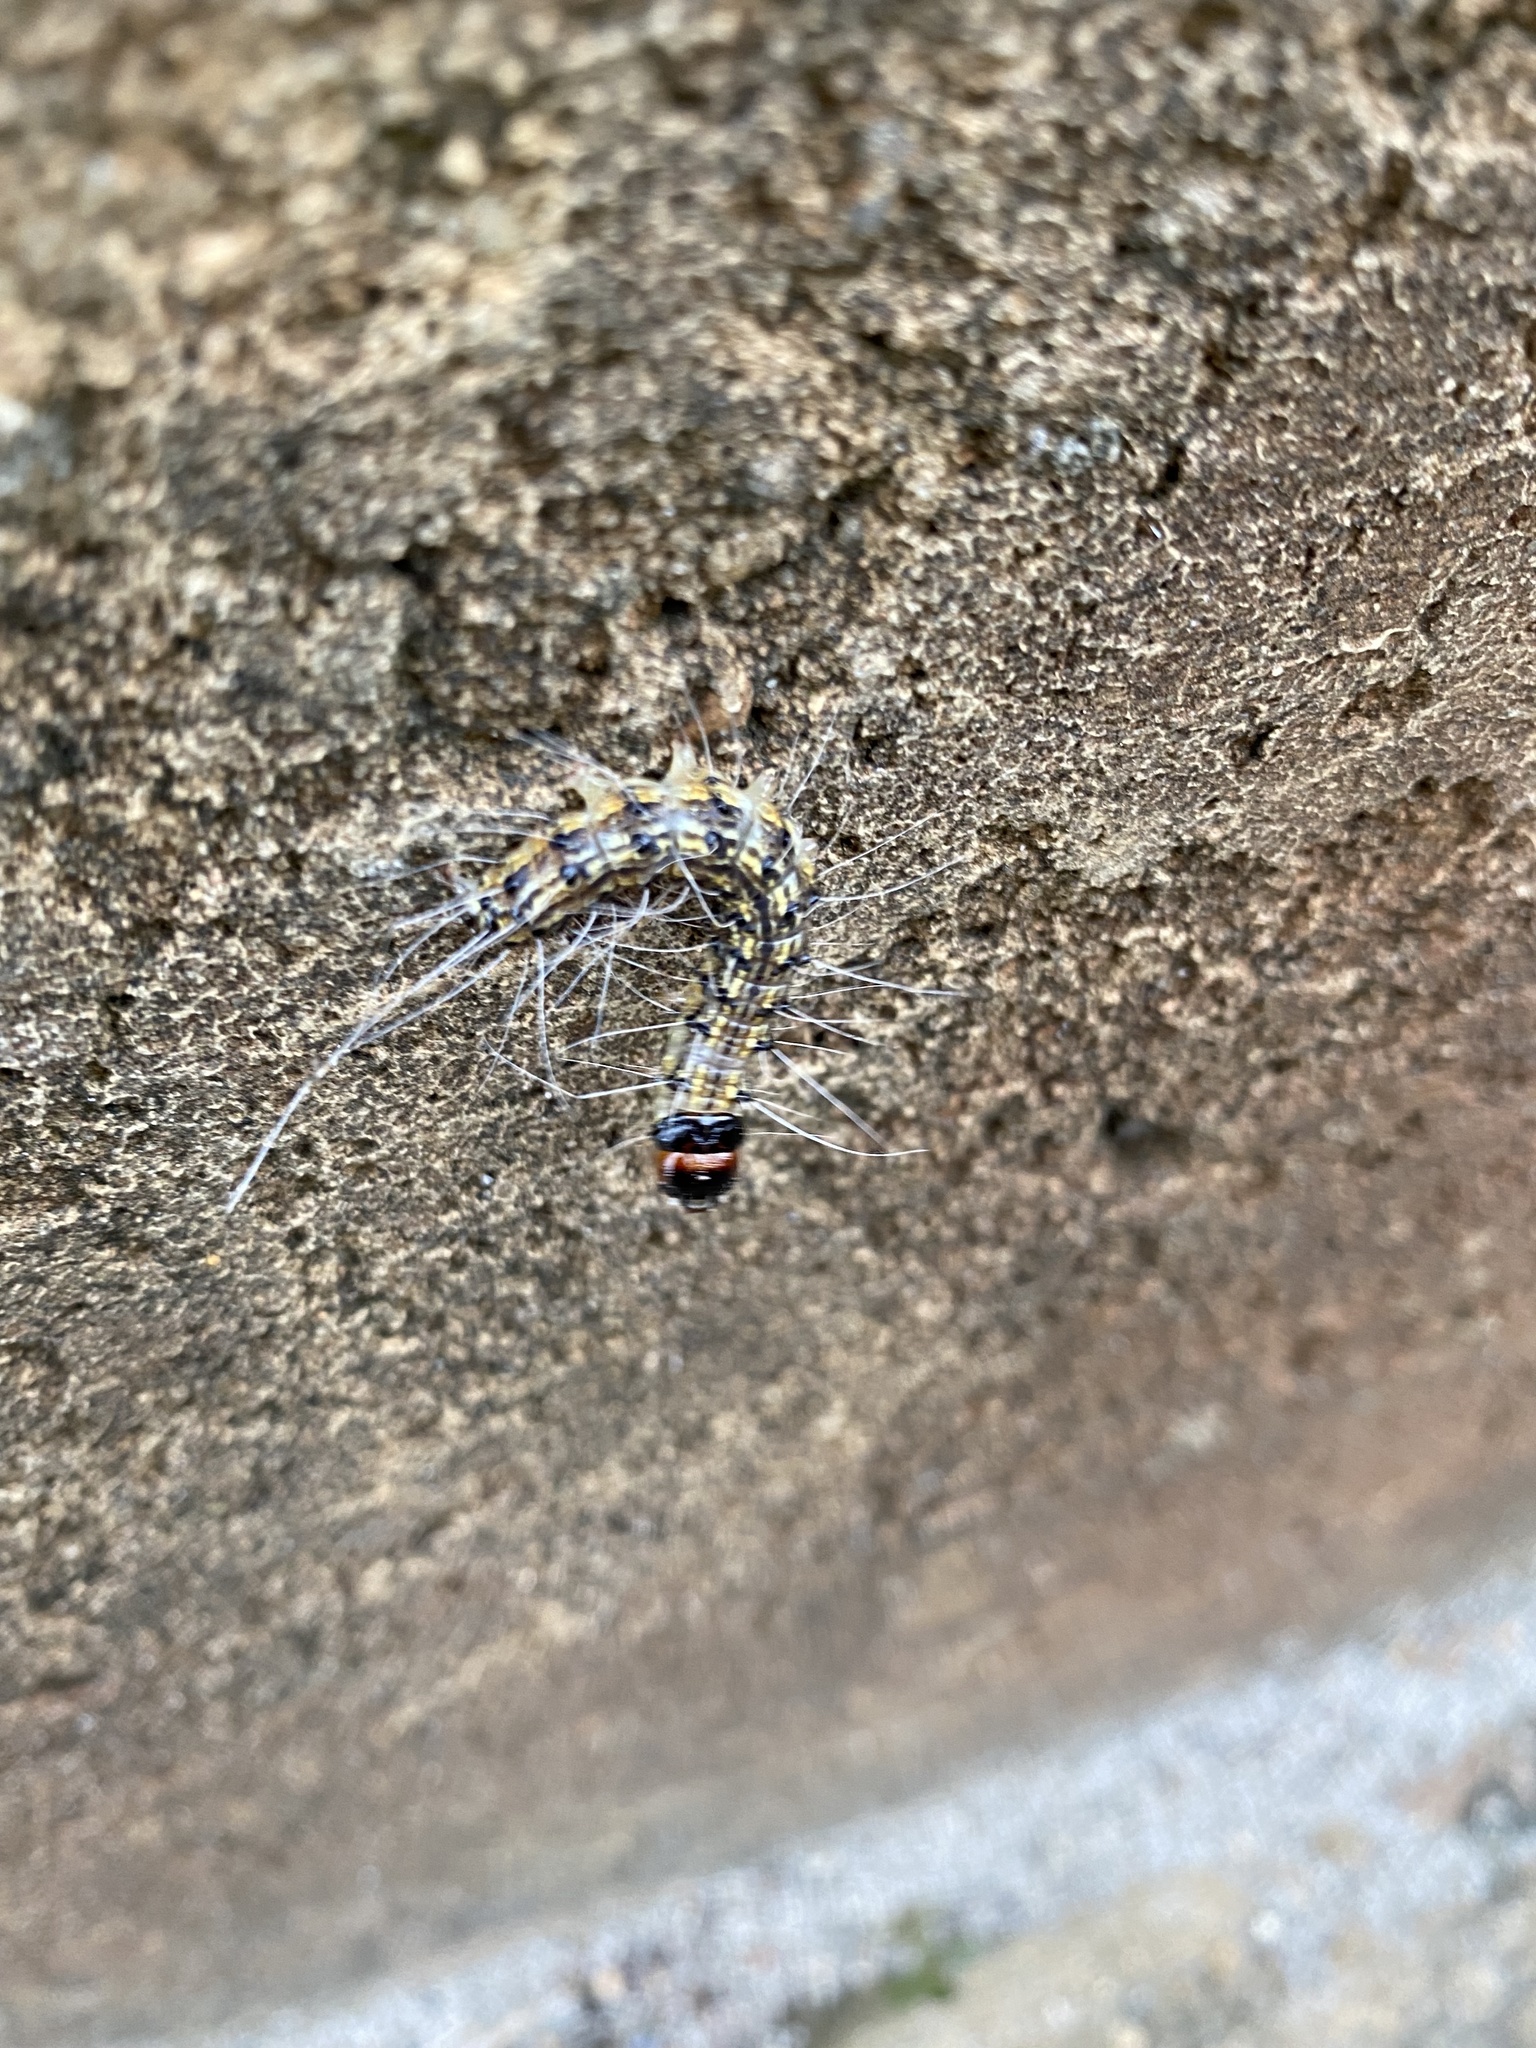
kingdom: Animalia
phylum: Arthropoda
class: Insecta
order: Lepidoptera
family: Erebidae
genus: Litoprosopus
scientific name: Litoprosopus futilis
